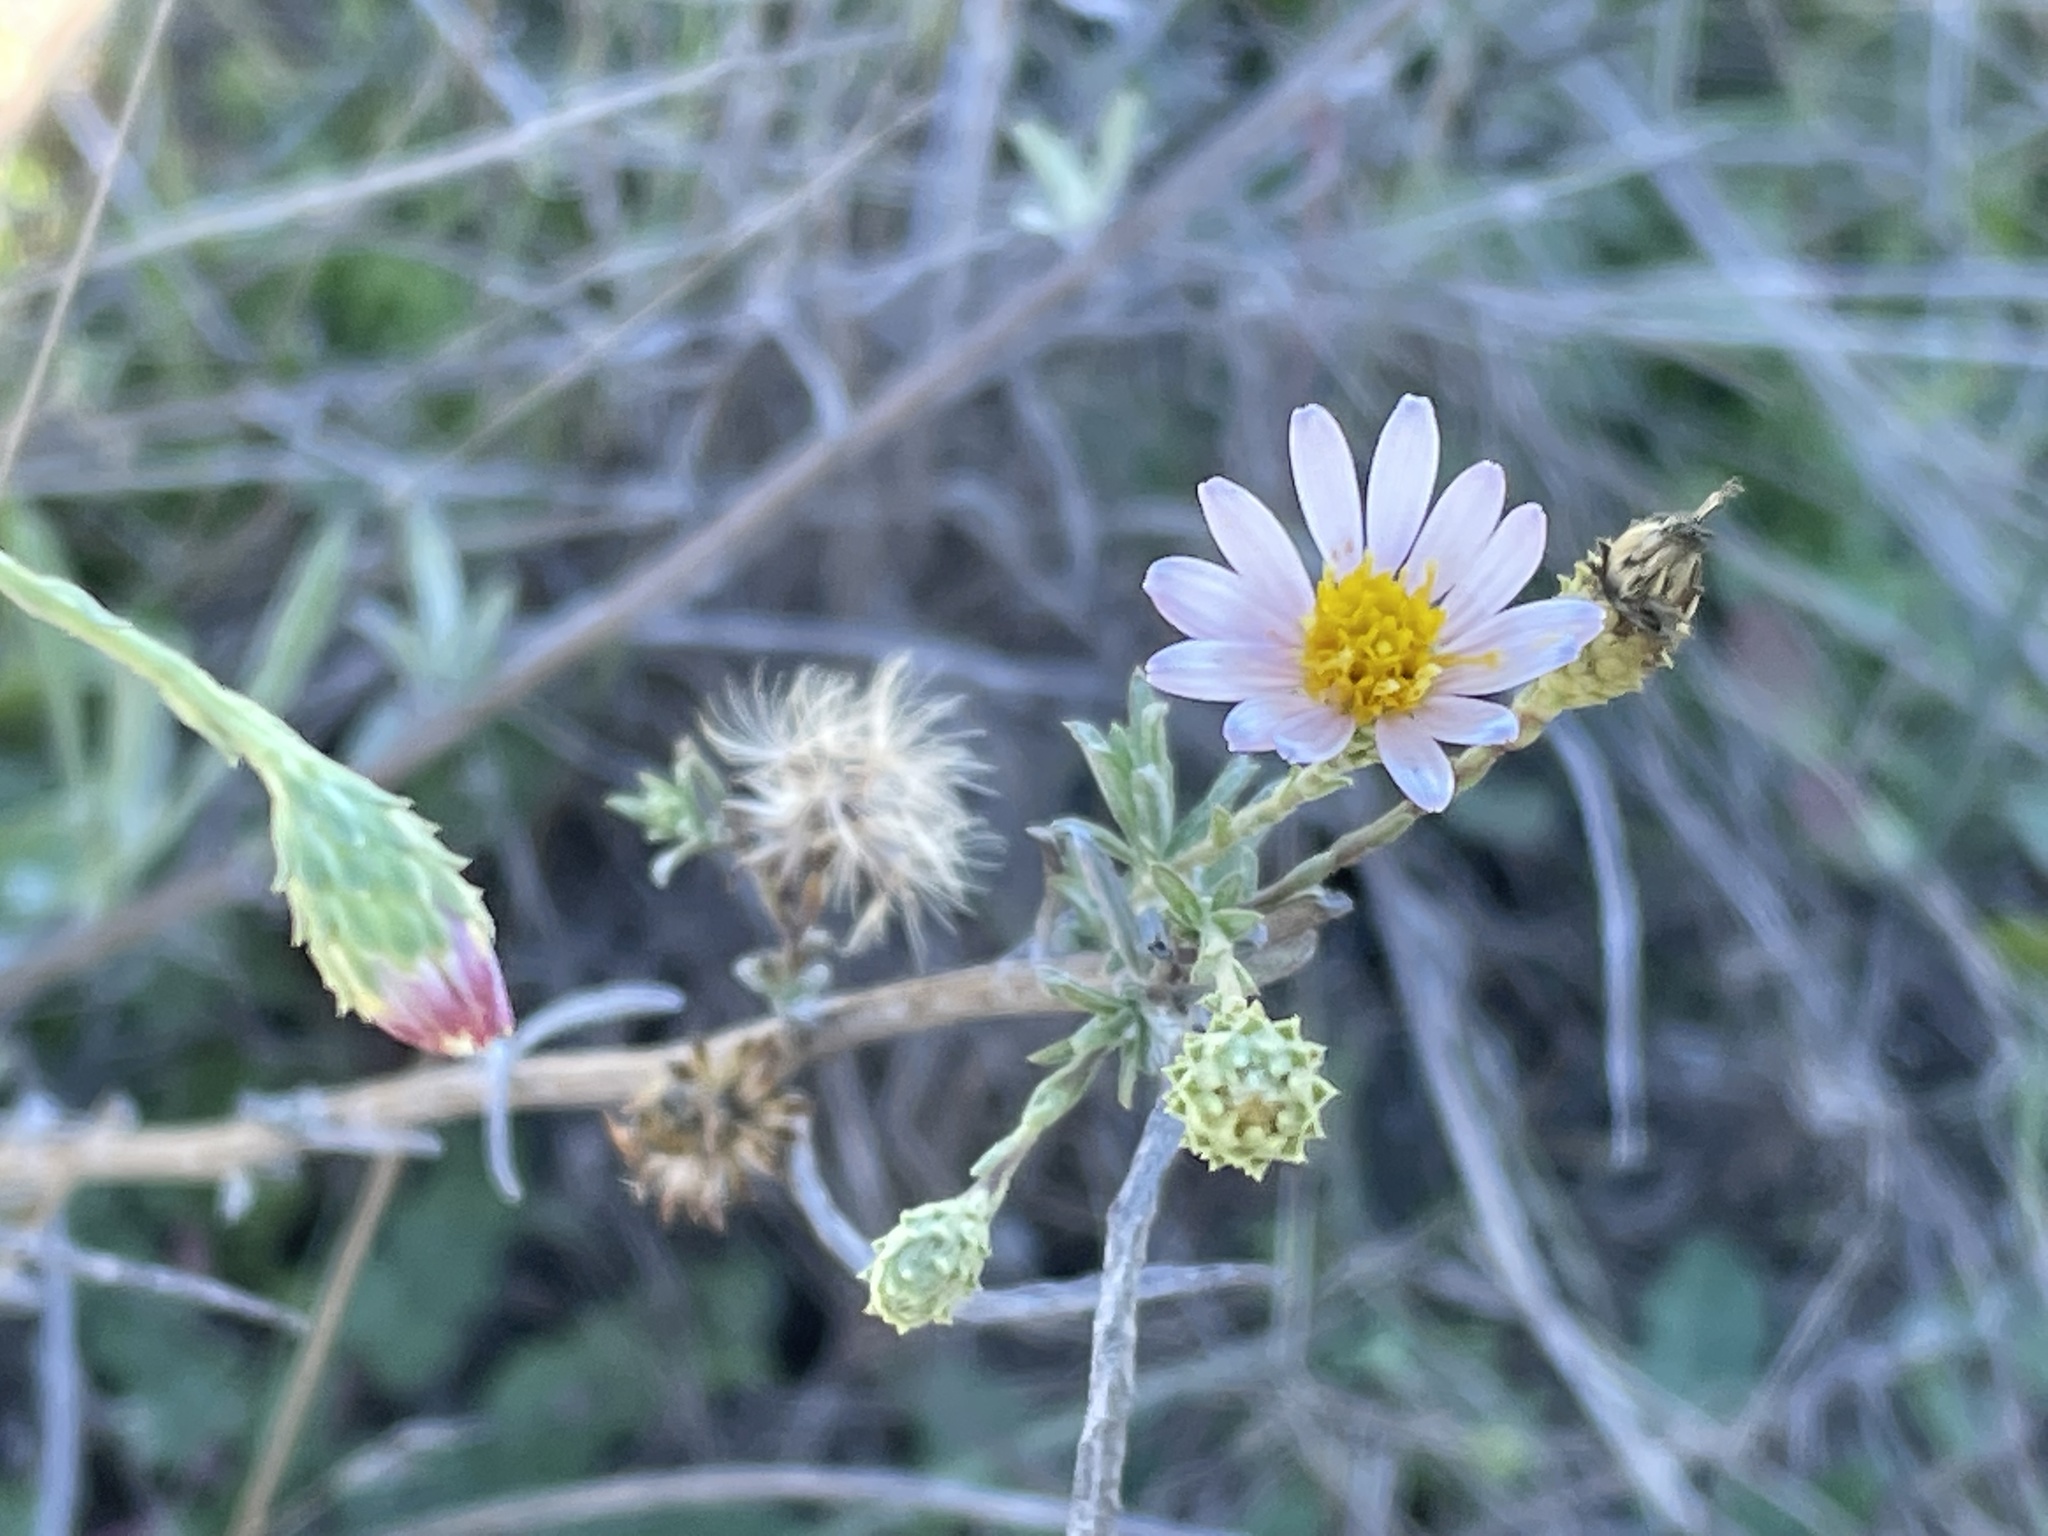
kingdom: Plantae
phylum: Tracheophyta
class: Magnoliopsida
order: Asterales
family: Asteraceae
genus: Corethrogyne
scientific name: Corethrogyne filaginifolia
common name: Sand-aster
